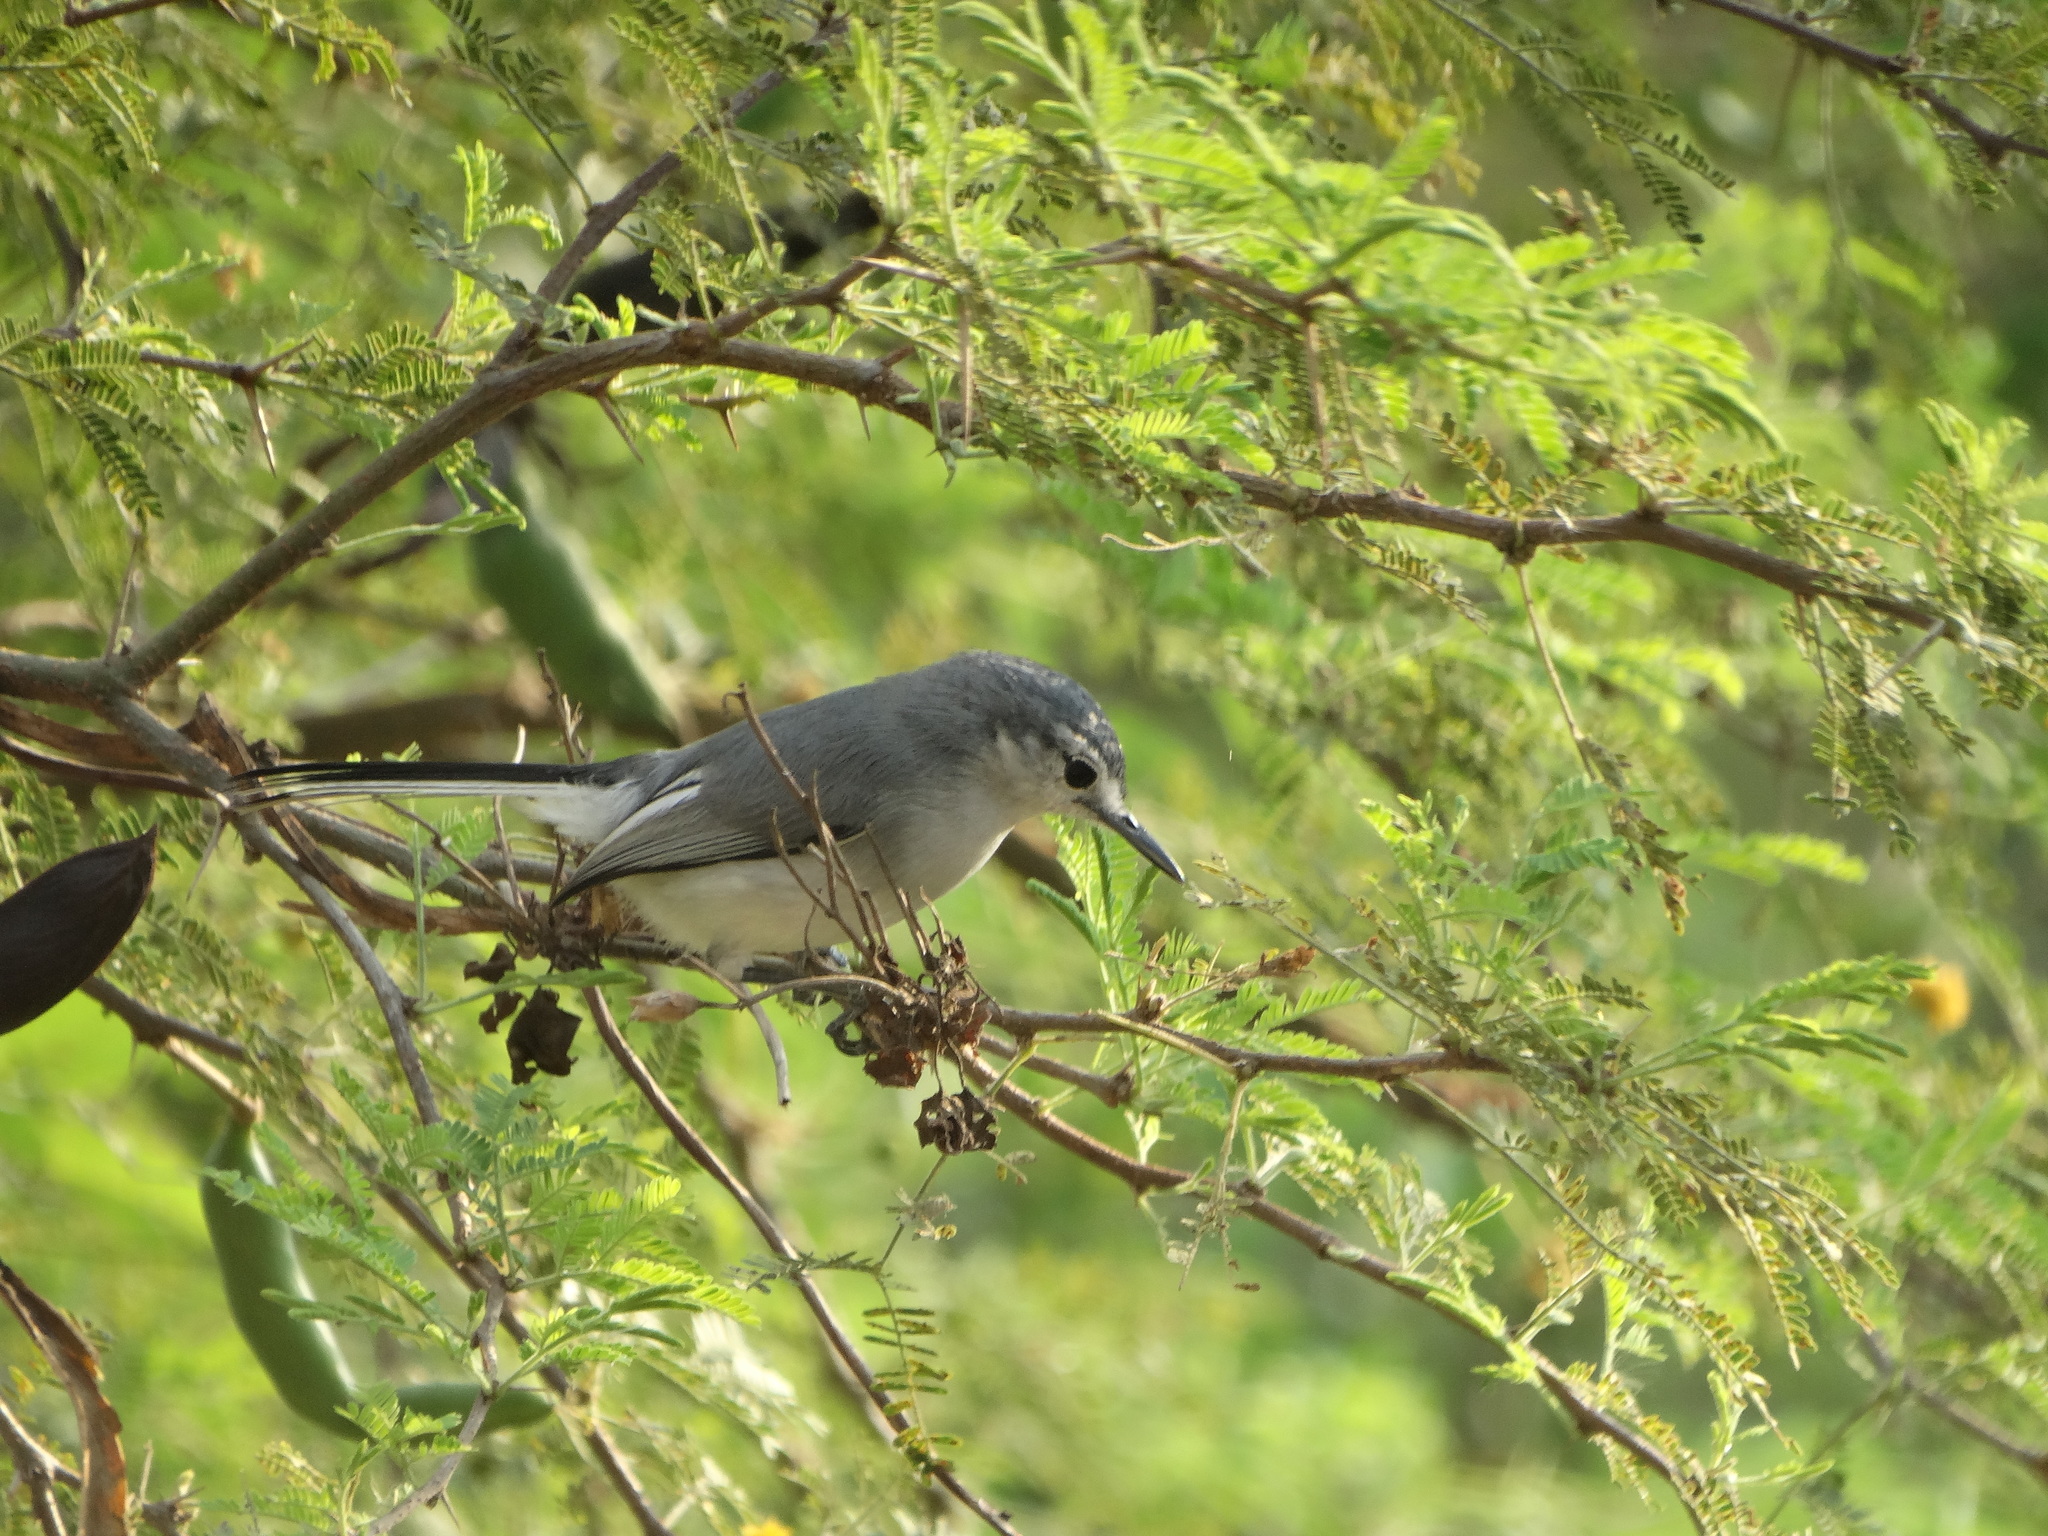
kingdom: Animalia
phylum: Chordata
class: Aves
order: Passeriformes
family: Polioptilidae
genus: Polioptila
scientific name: Polioptila albiloris
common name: White-lored gnatcatcher
